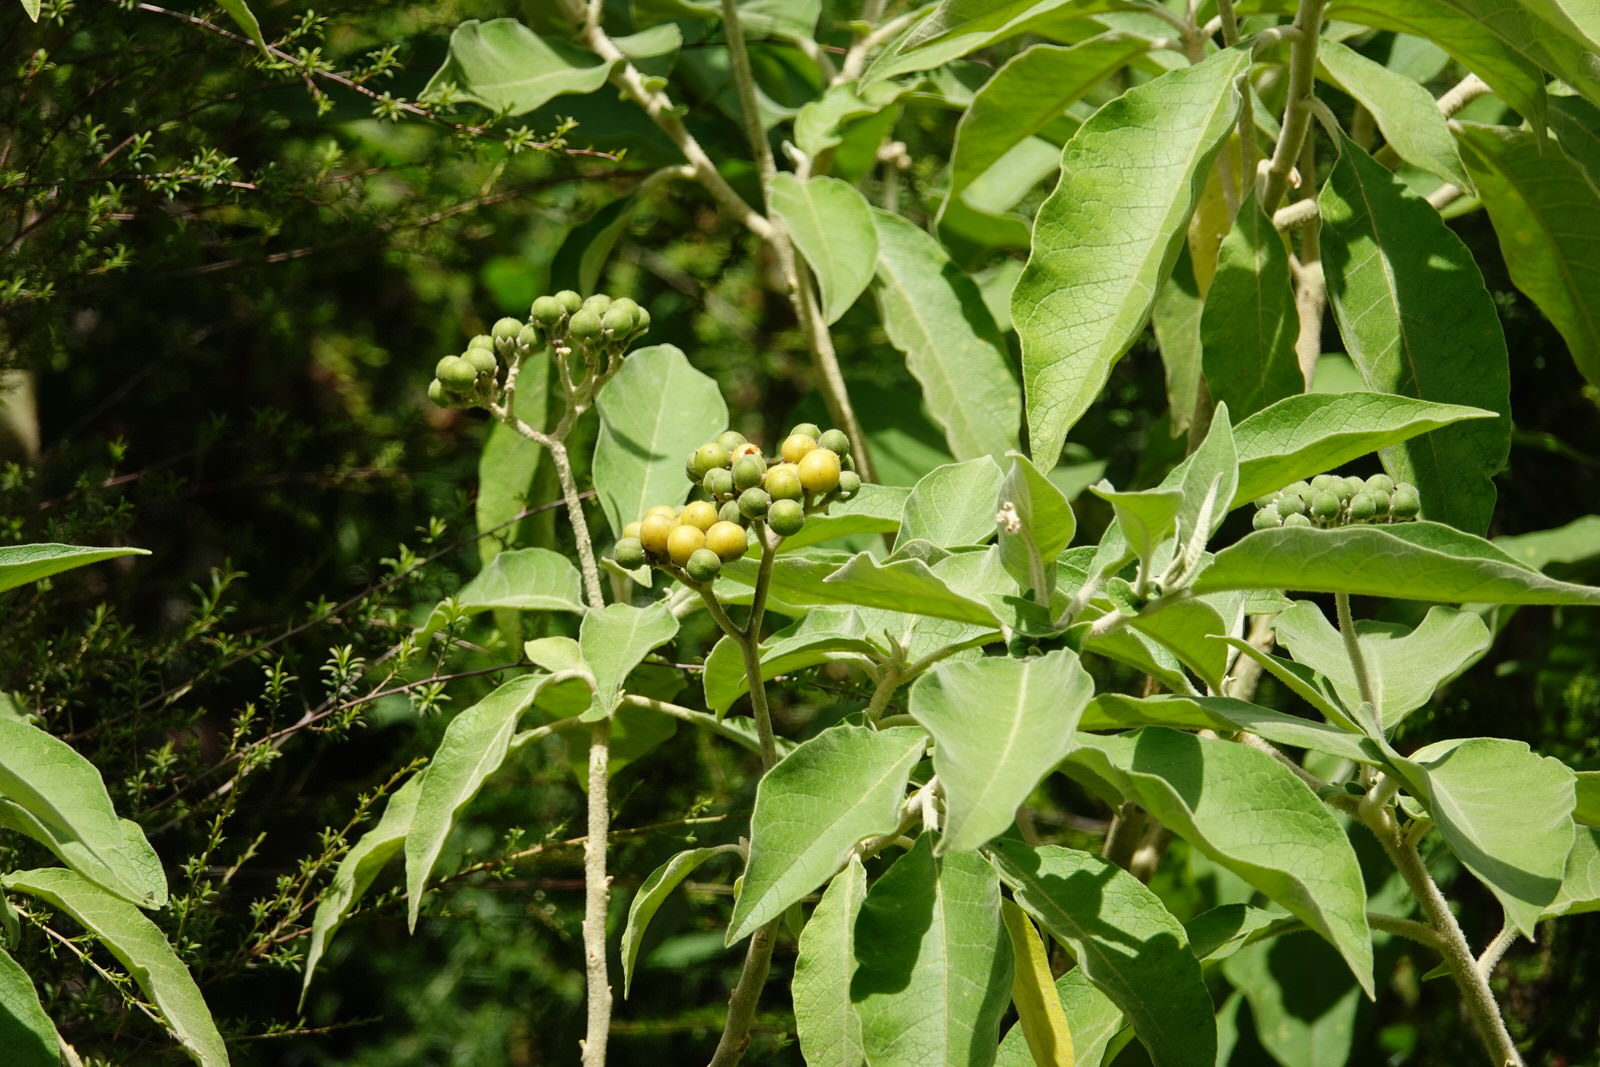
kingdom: Plantae
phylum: Tracheophyta
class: Magnoliopsida
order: Solanales
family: Solanaceae
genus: Solanum
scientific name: Solanum mauritianum
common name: Earleaf nightshade
